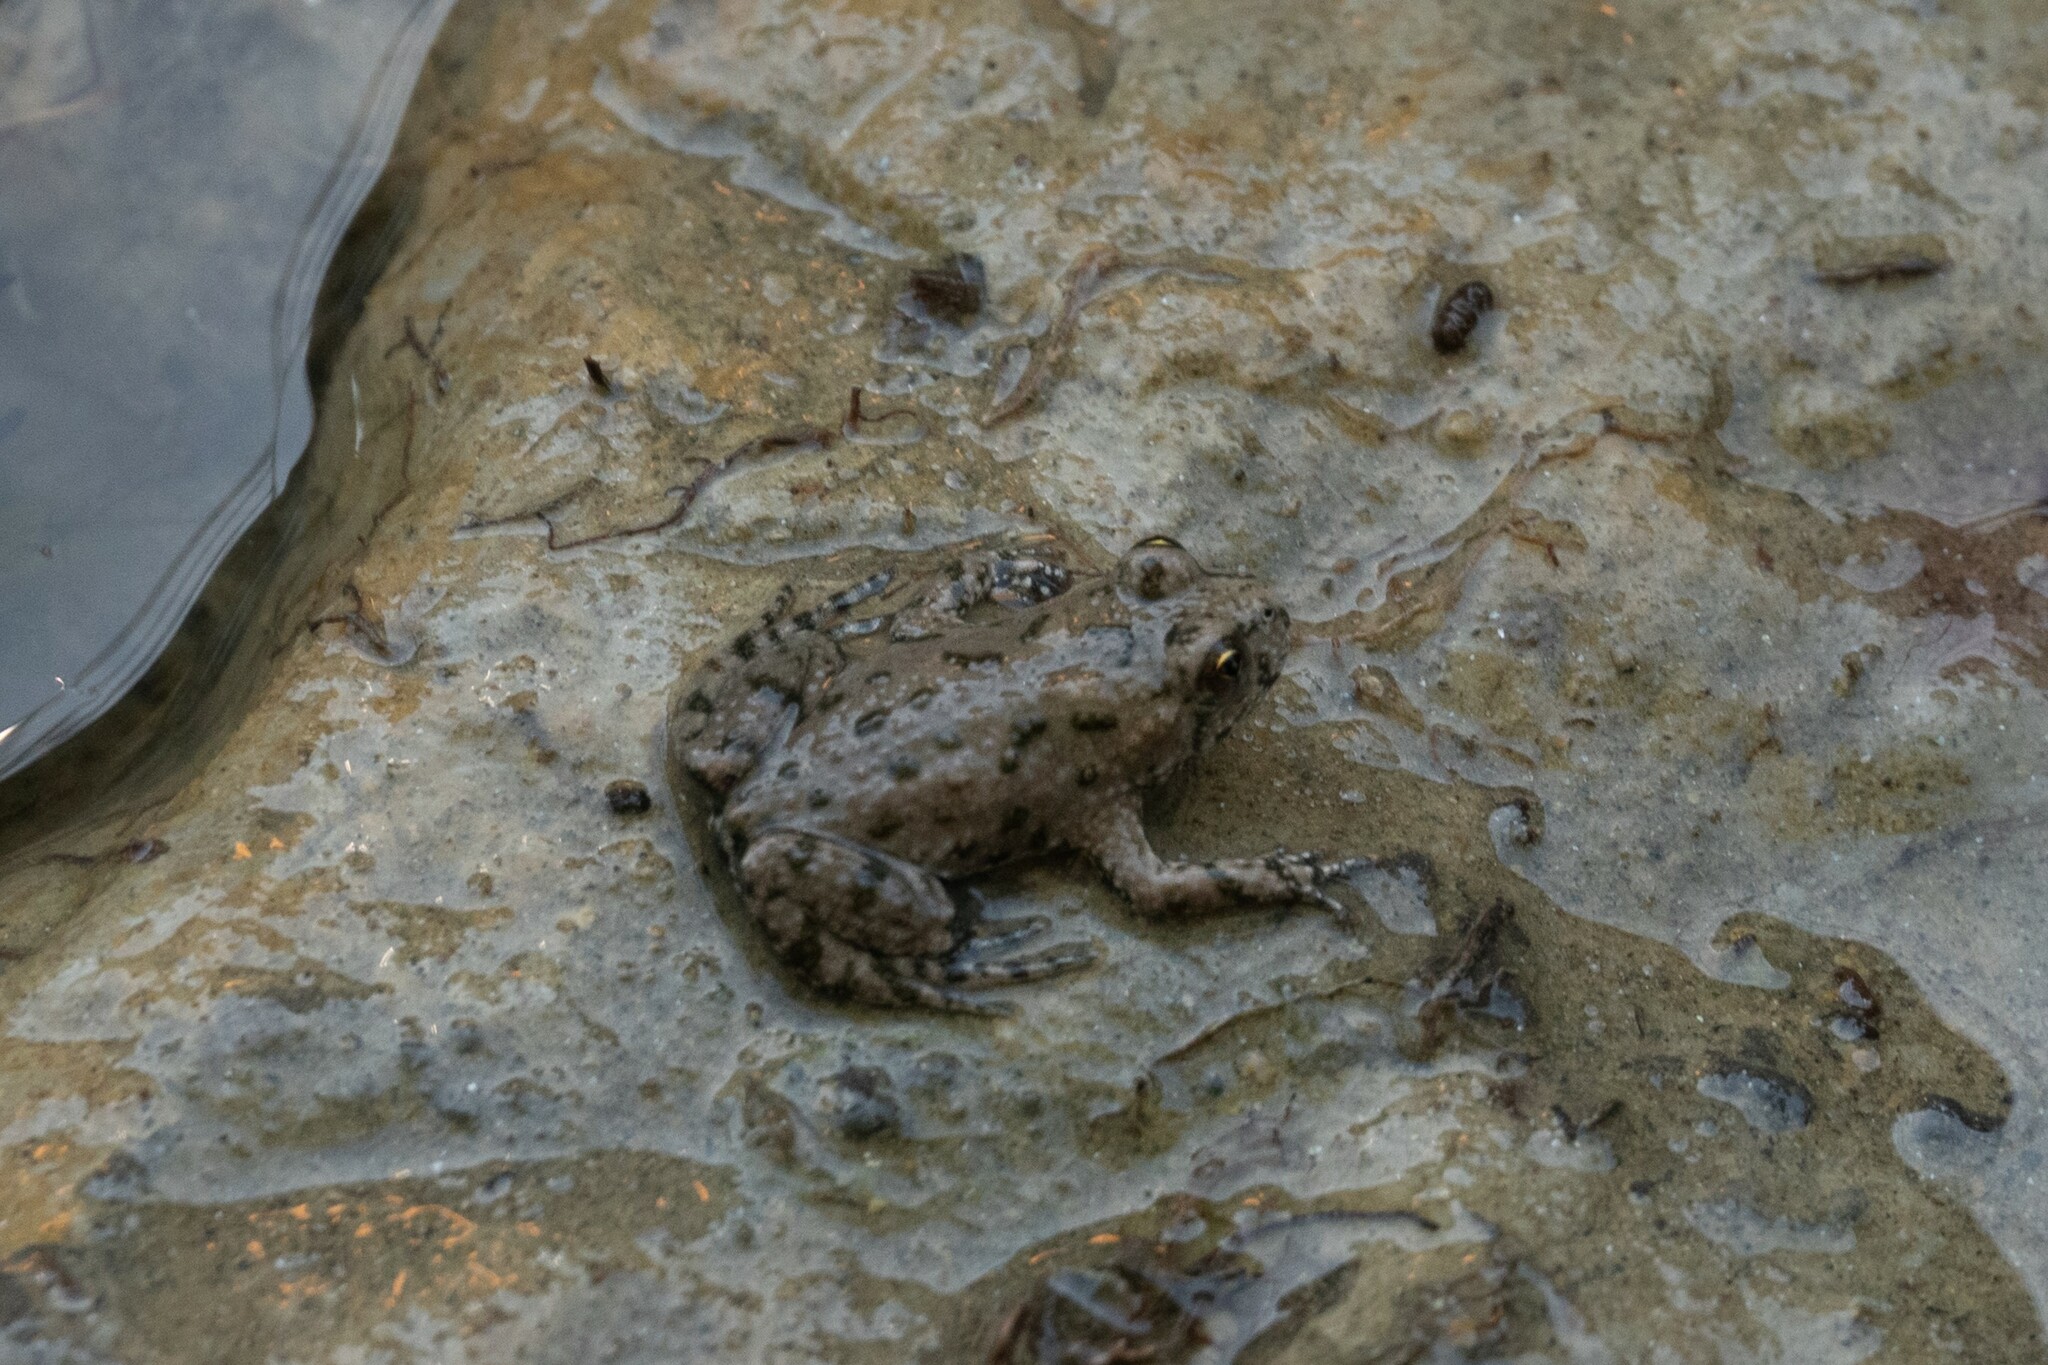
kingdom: Animalia
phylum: Chordata
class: Amphibia
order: Anura
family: Bombinatoridae
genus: Bombina
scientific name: Bombina bombina
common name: Fire-bellied toad
